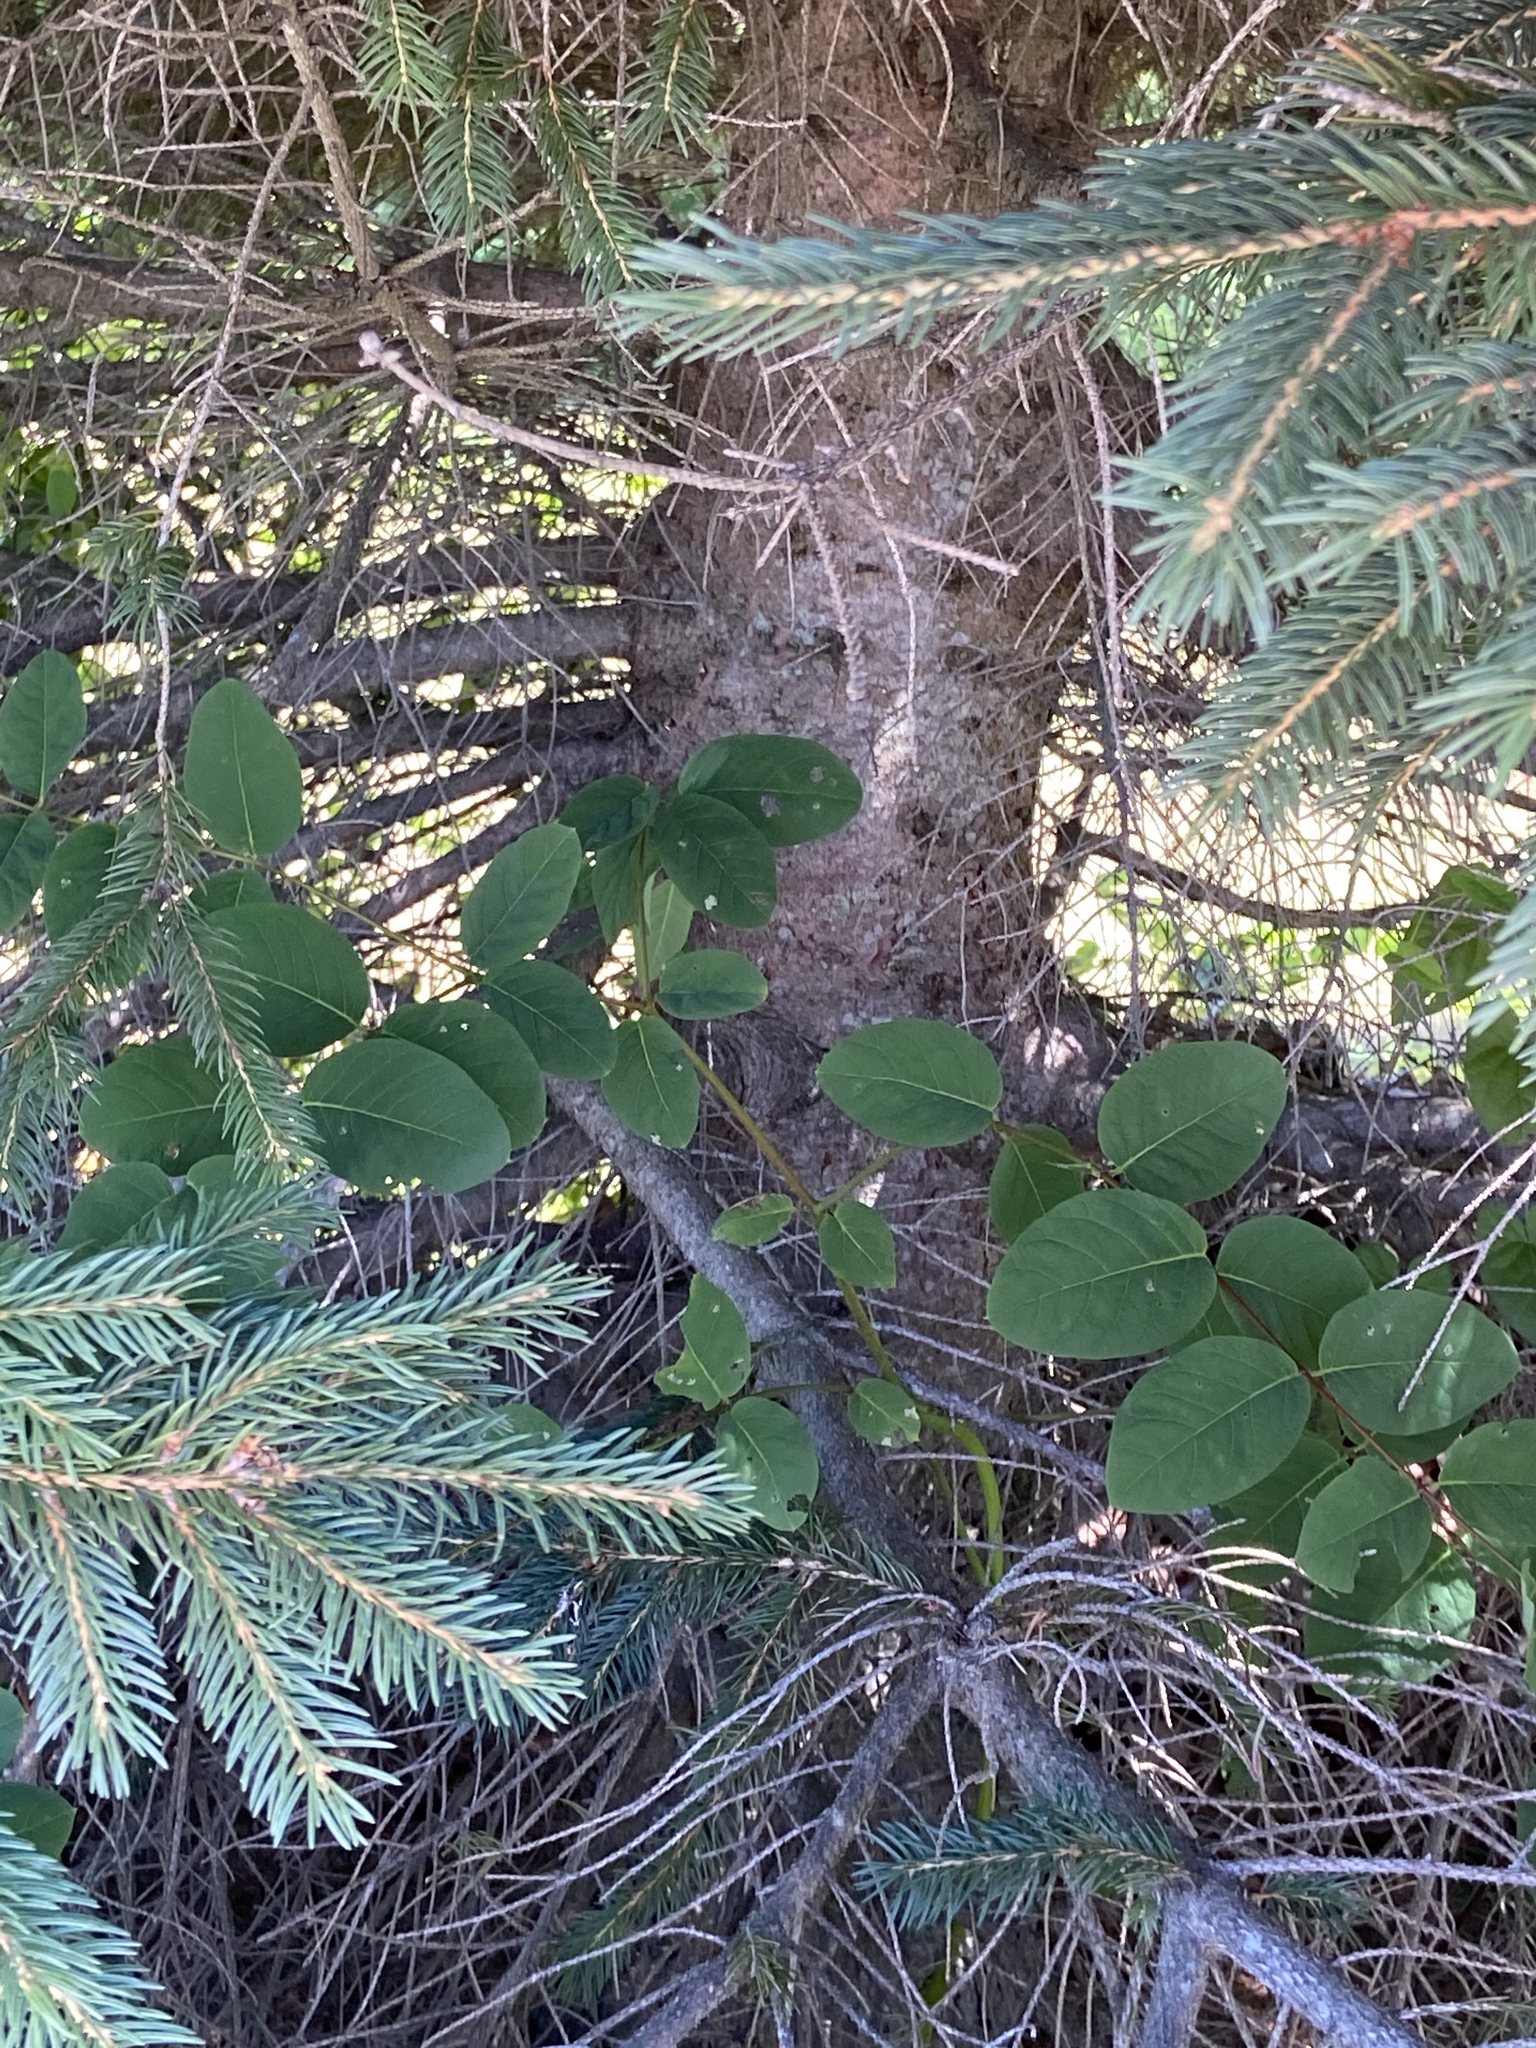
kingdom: Plantae
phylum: Tracheophyta
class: Pinopsida
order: Pinales
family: Pinaceae
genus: Picea
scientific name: Picea glauca
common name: White spruce
